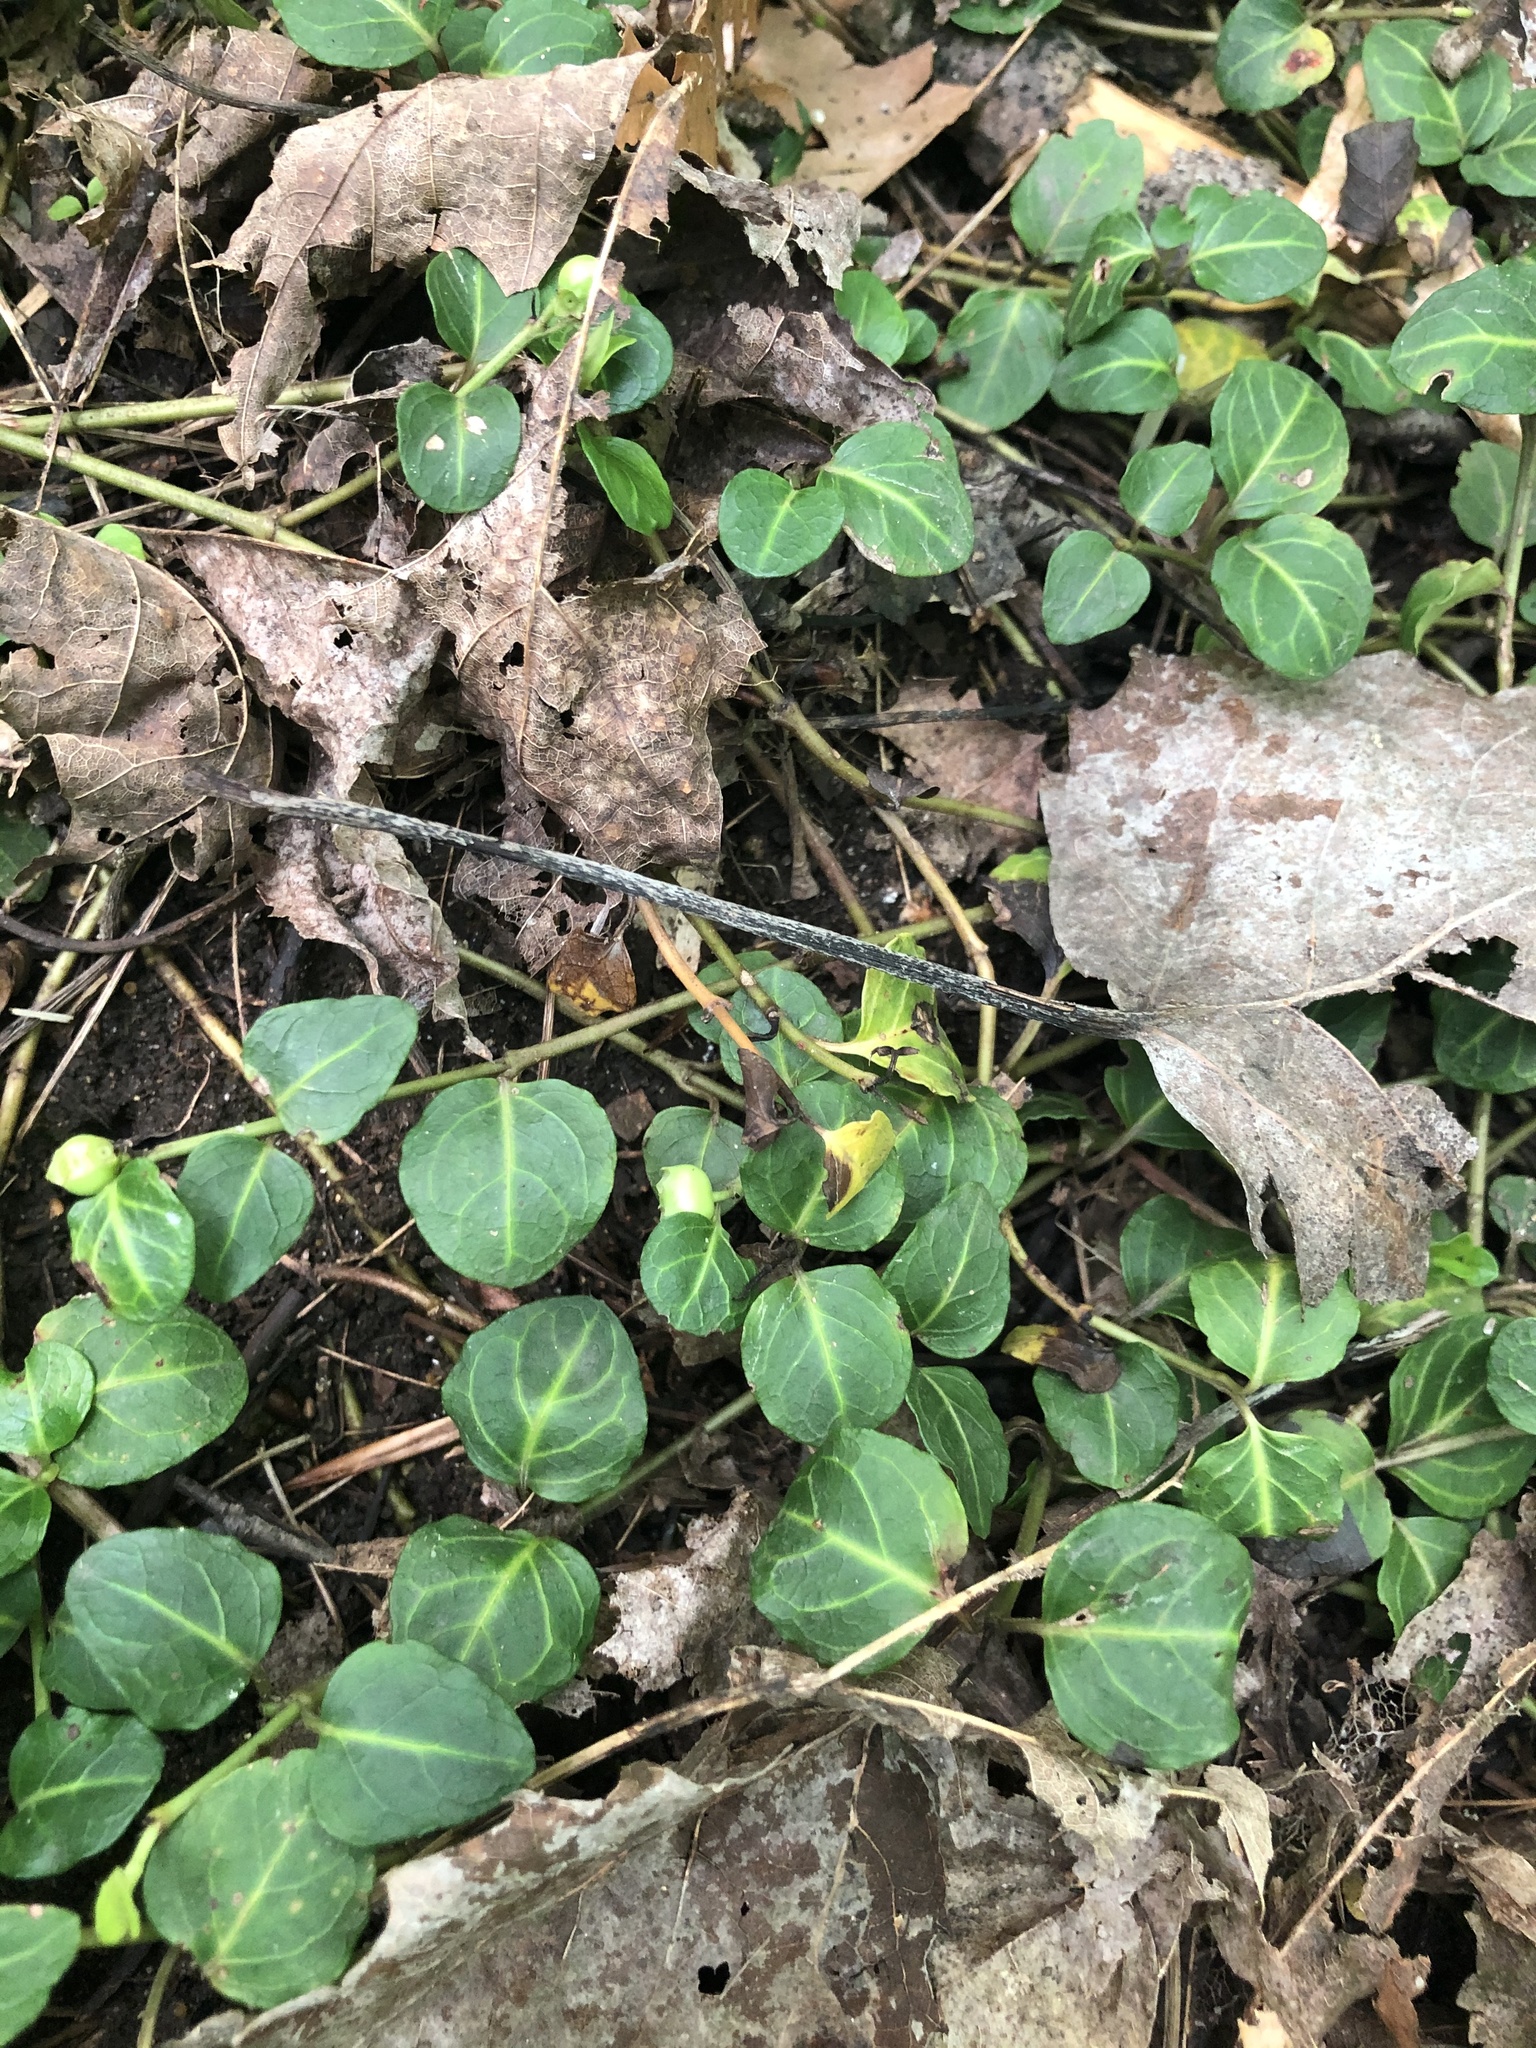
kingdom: Plantae
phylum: Tracheophyta
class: Magnoliopsida
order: Gentianales
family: Rubiaceae
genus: Mitchella
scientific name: Mitchella repens
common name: Partridge-berry
